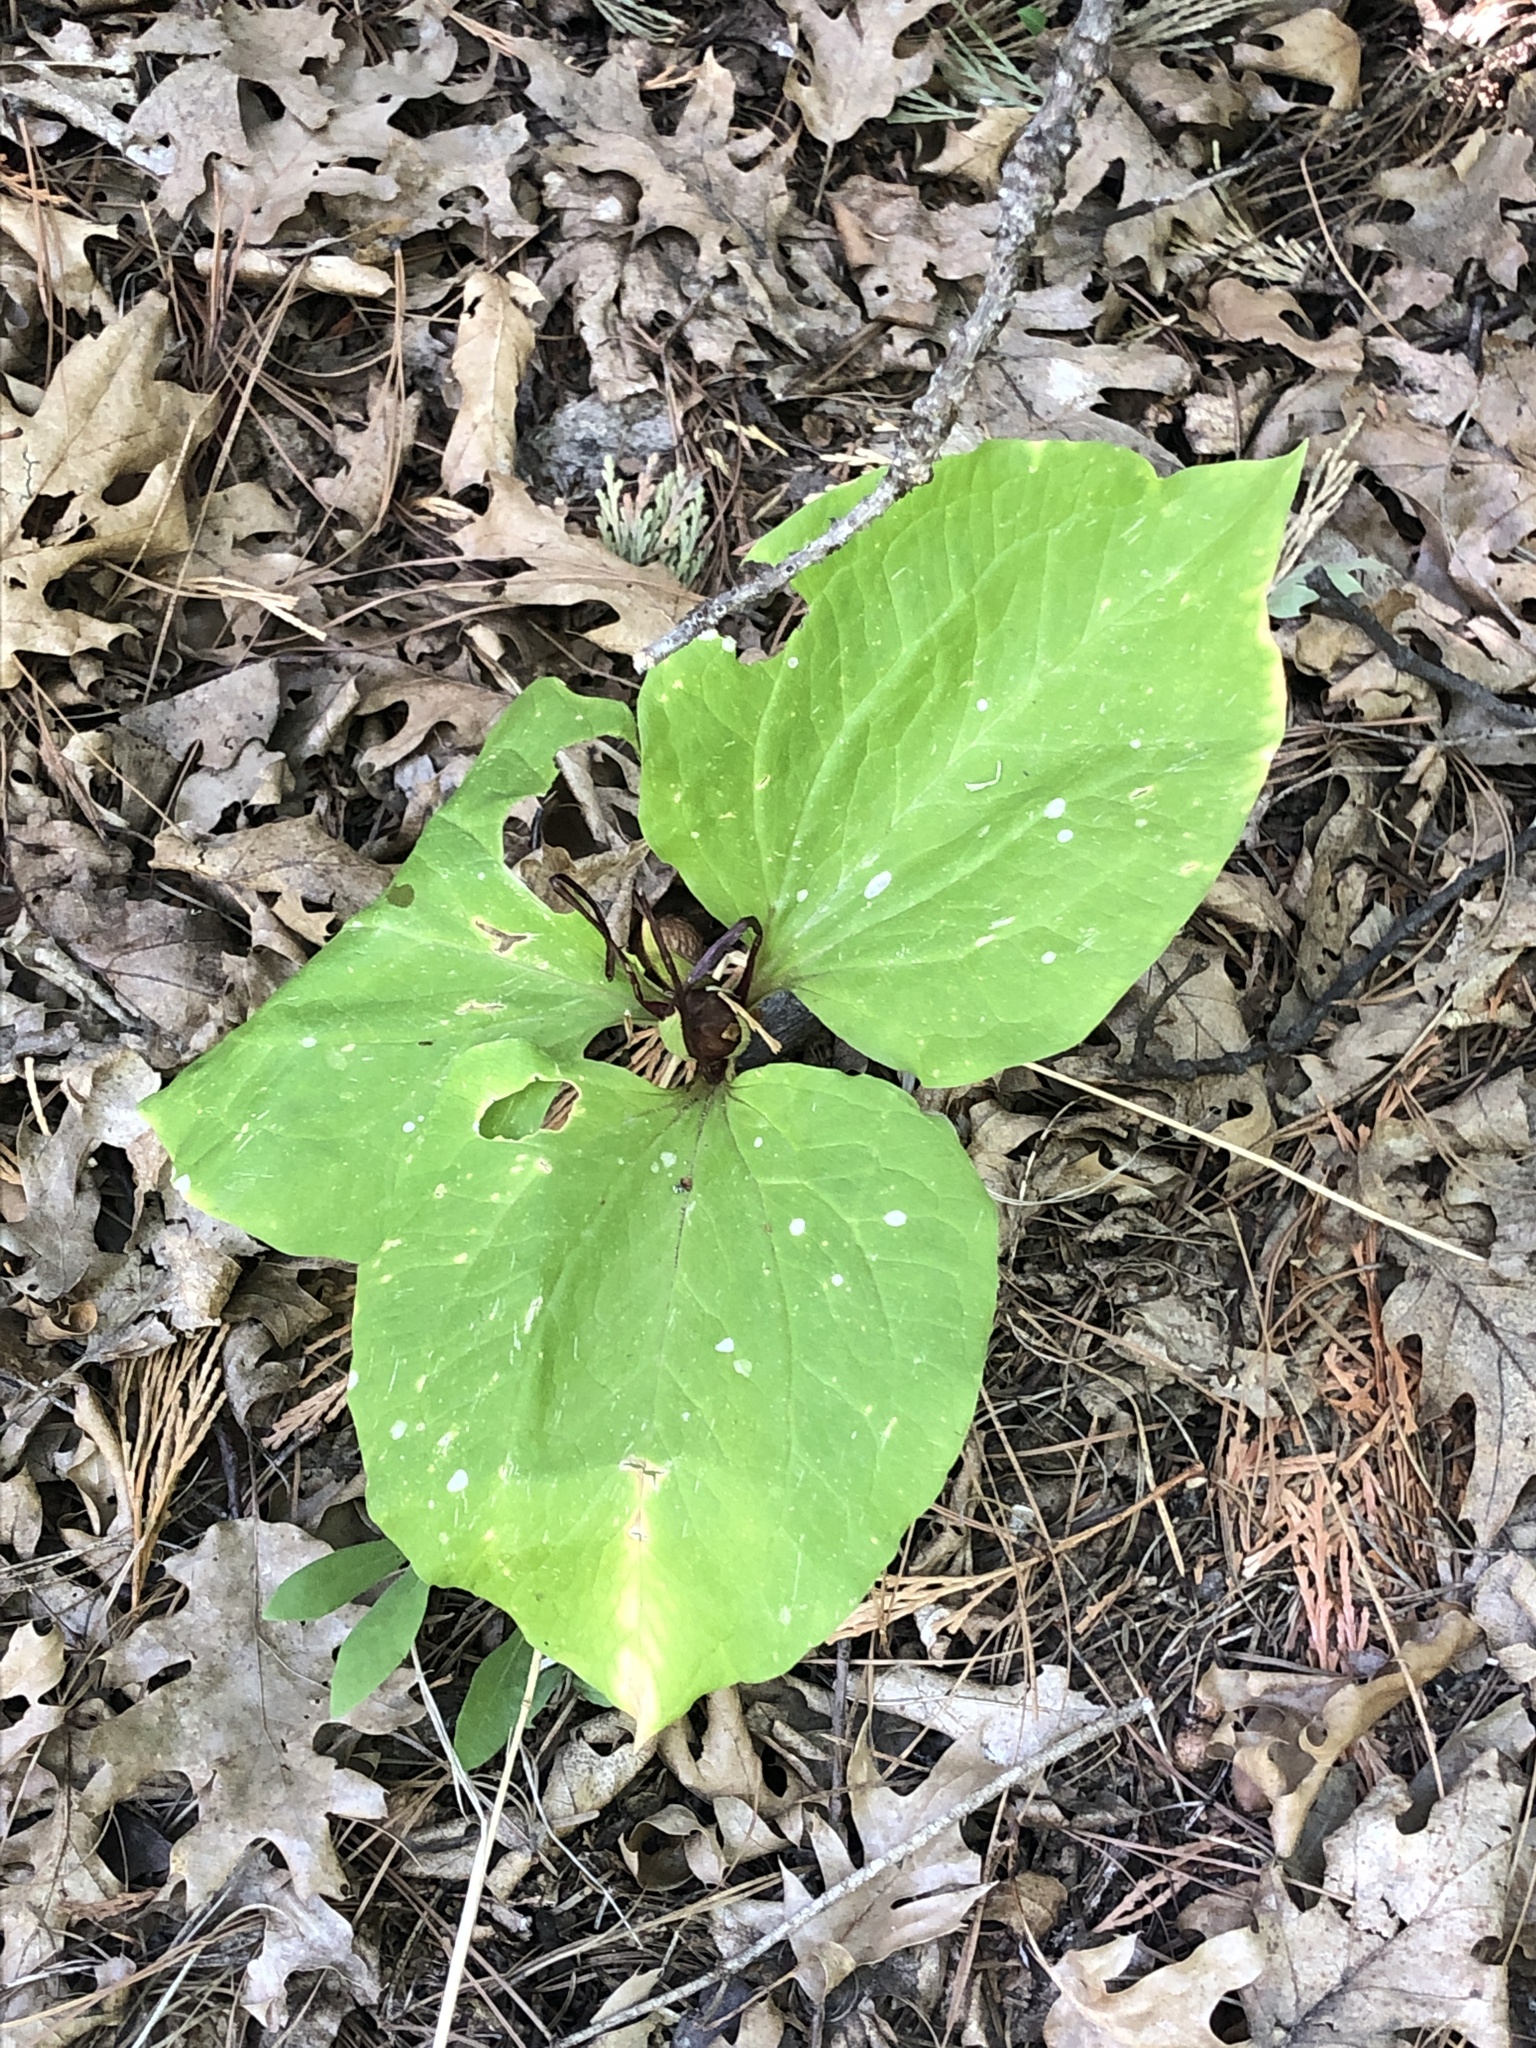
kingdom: Plantae
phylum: Tracheophyta
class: Liliopsida
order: Liliales
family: Melanthiaceae
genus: Trillium
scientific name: Trillium
